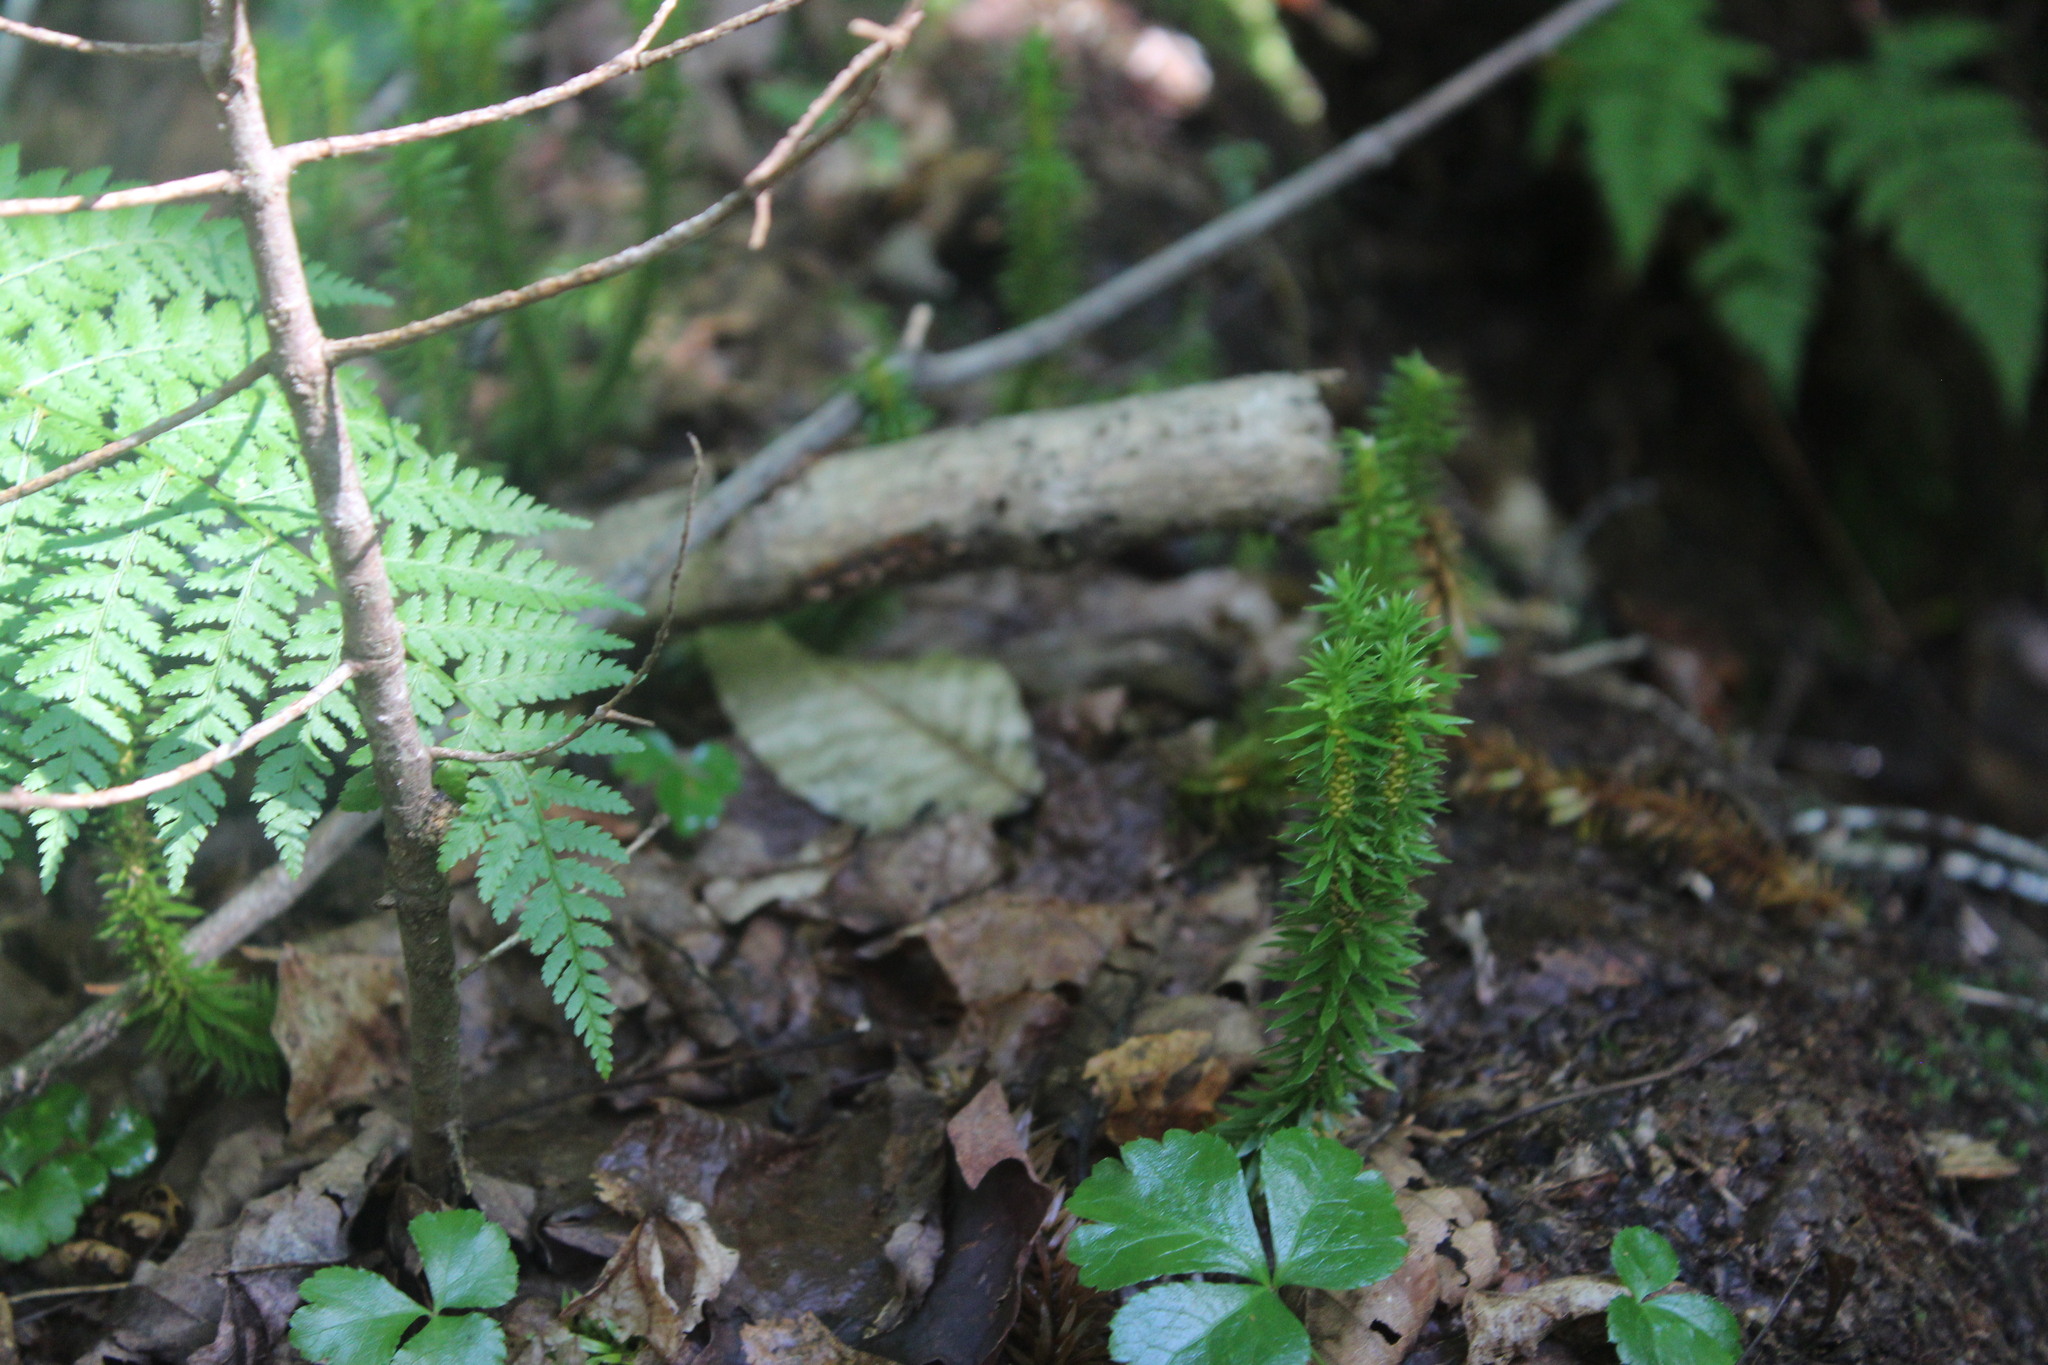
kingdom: Plantae
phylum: Tracheophyta
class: Lycopodiopsida
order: Lycopodiales
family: Lycopodiaceae
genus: Huperzia
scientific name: Huperzia lucidula
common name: Shining clubmoss
